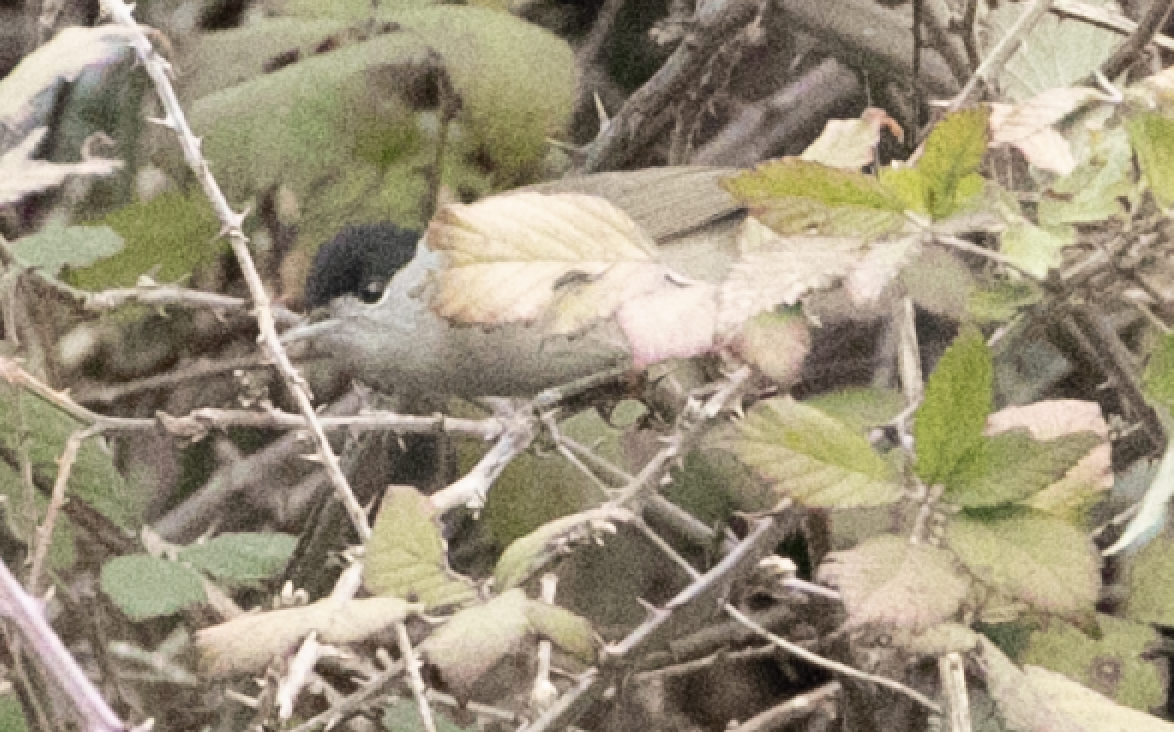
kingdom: Animalia
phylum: Chordata
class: Aves
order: Passeriformes
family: Sylviidae
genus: Sylvia
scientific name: Sylvia atricapilla
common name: Eurasian blackcap
